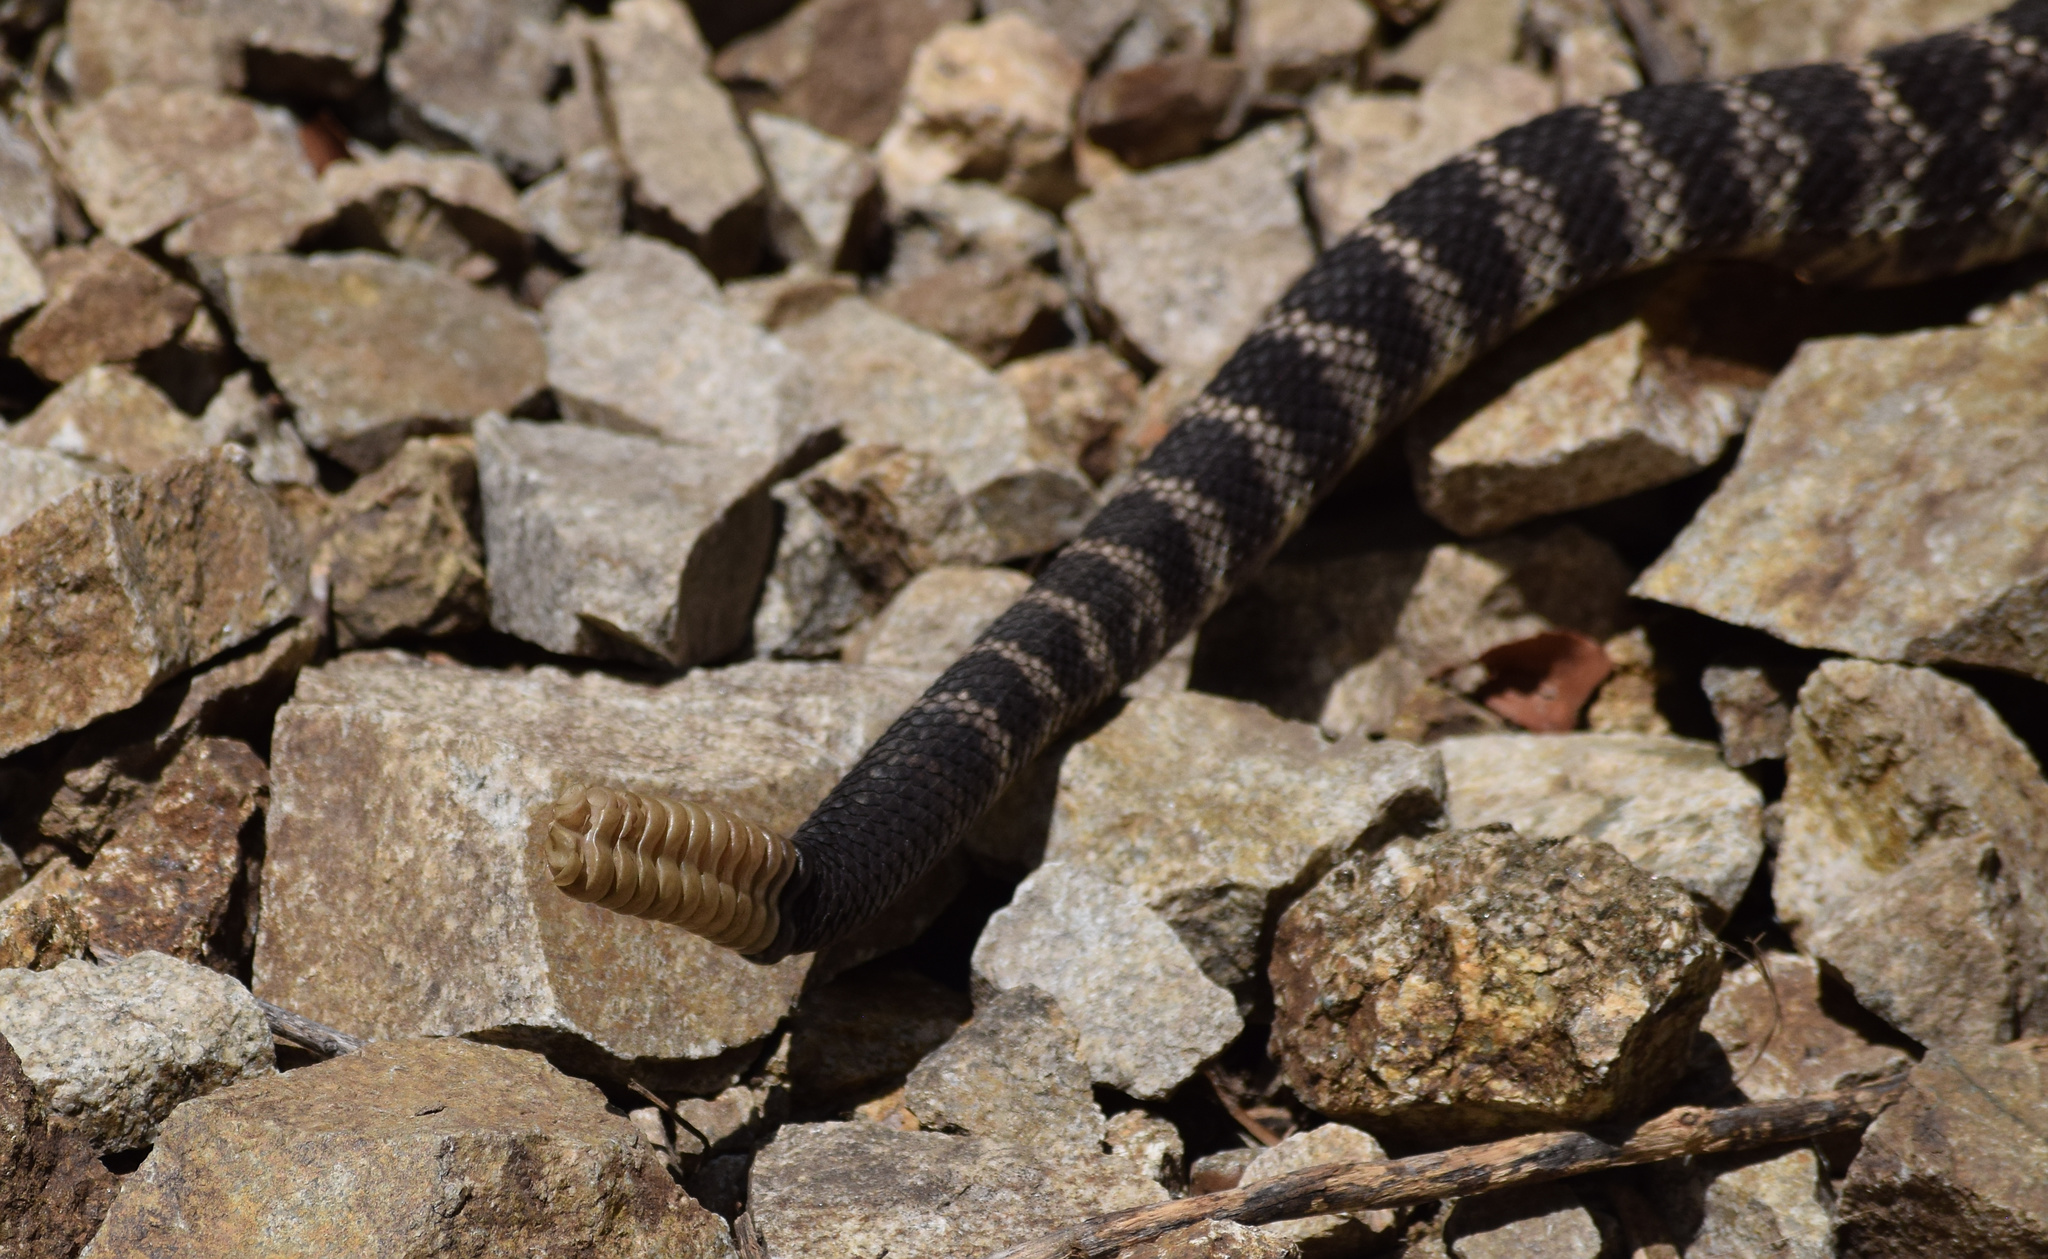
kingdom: Animalia
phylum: Chordata
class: Squamata
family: Viperidae
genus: Crotalus
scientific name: Crotalus oreganus
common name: Abyssus
